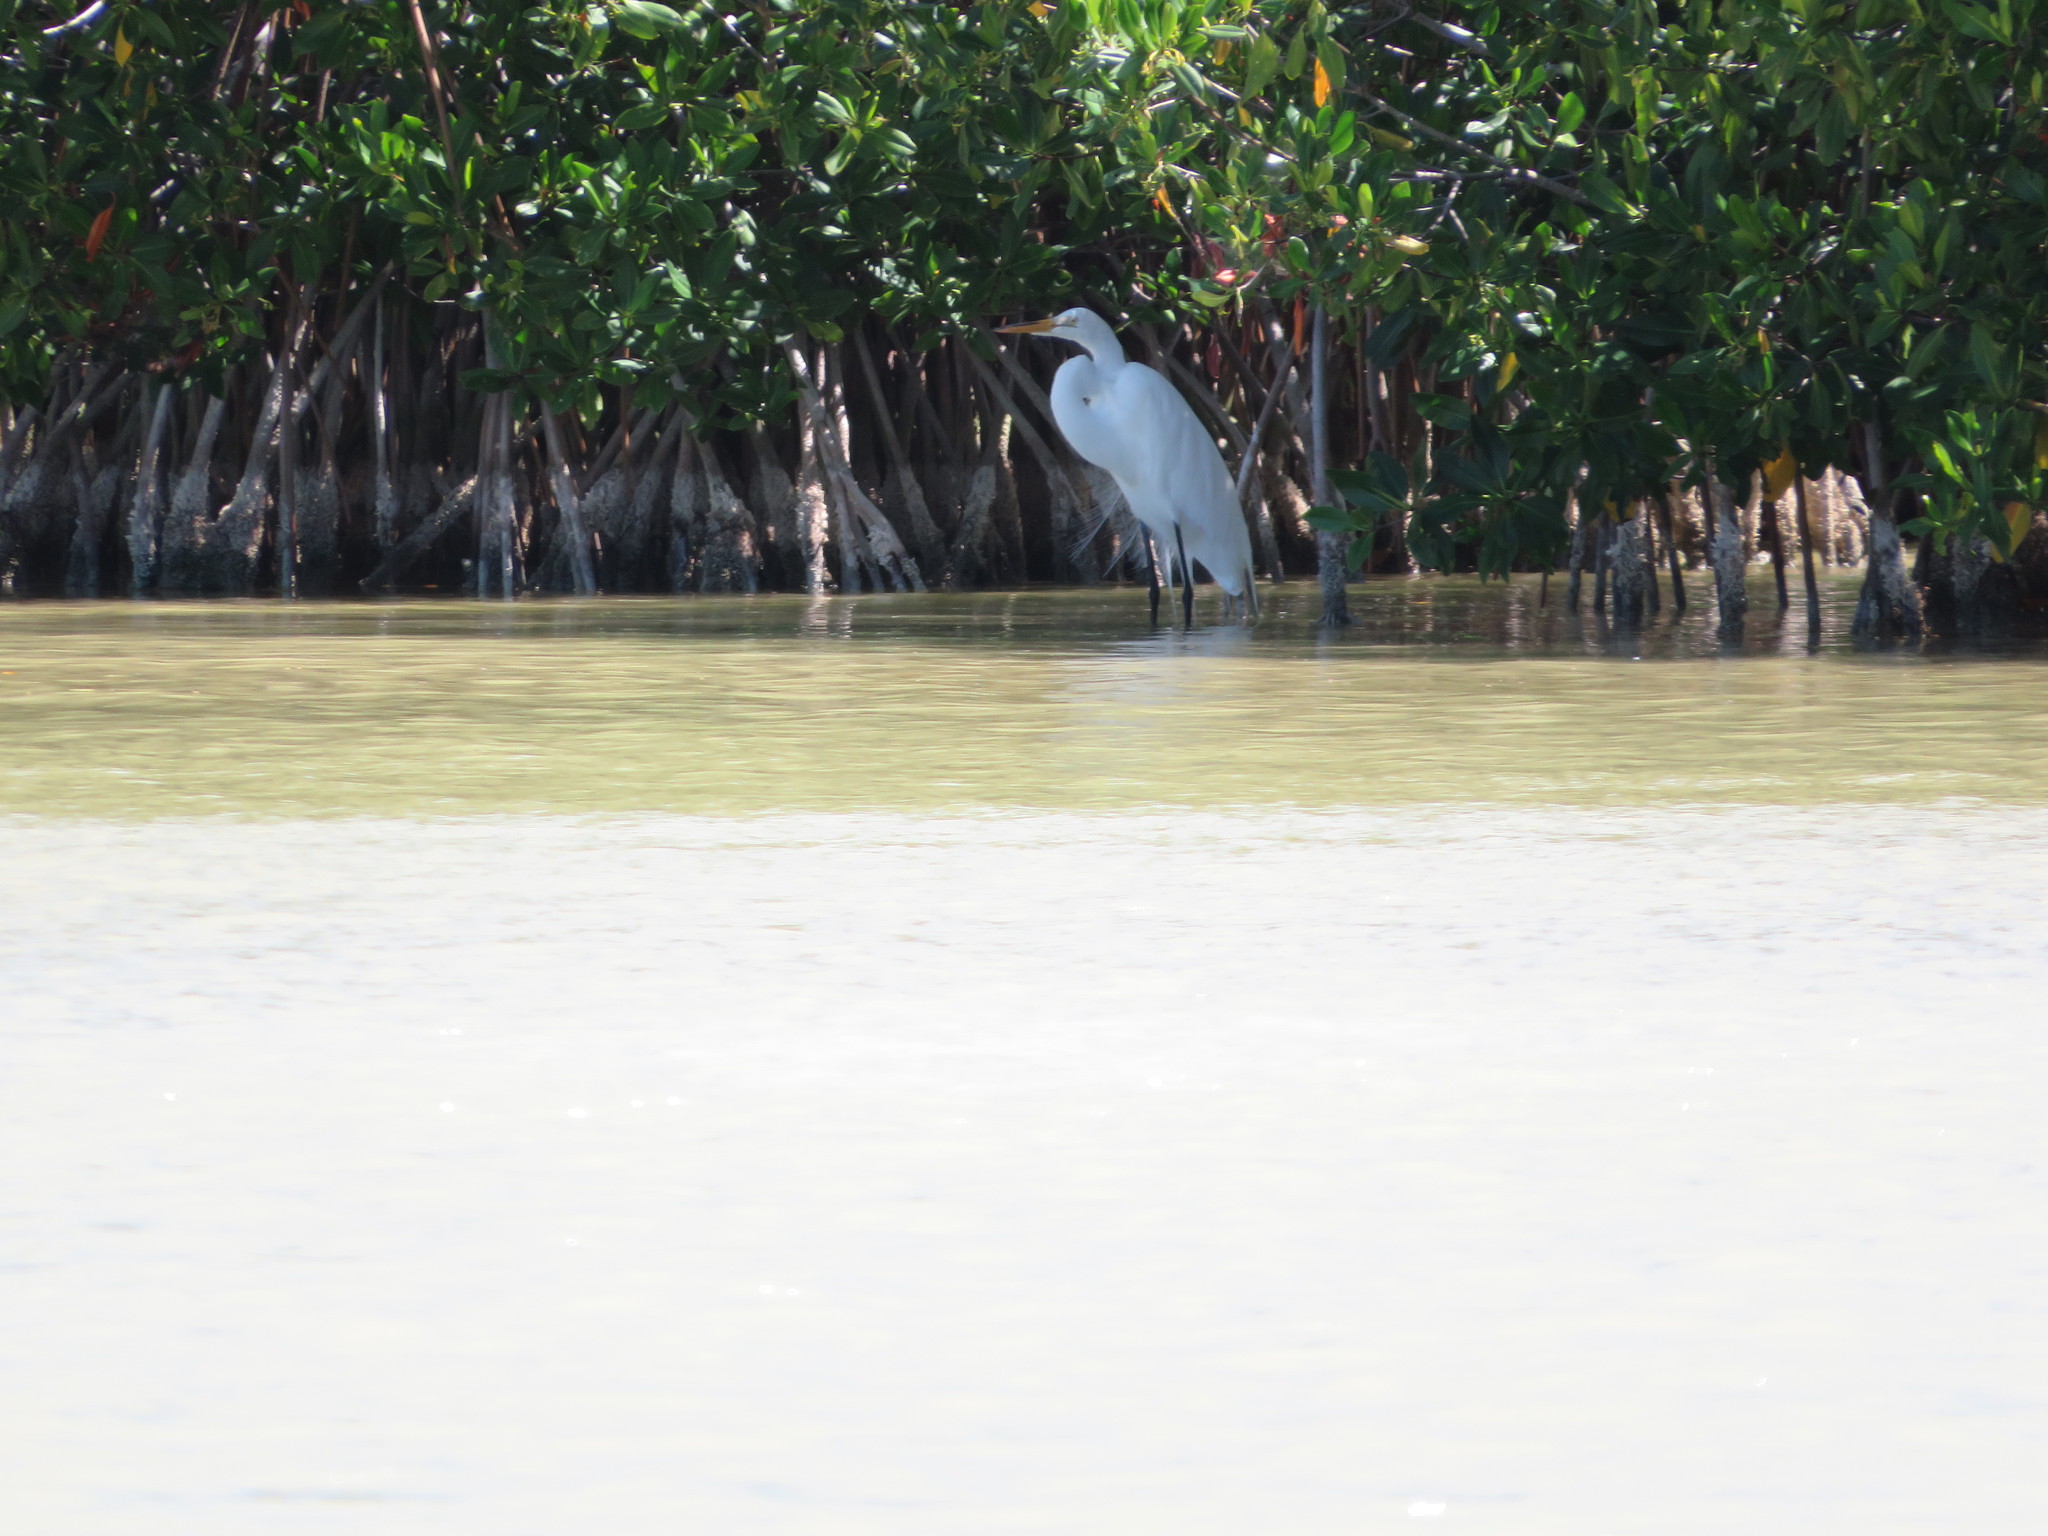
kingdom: Animalia
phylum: Chordata
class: Aves
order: Pelecaniformes
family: Ardeidae
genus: Ardea
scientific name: Ardea alba
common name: Great egret
